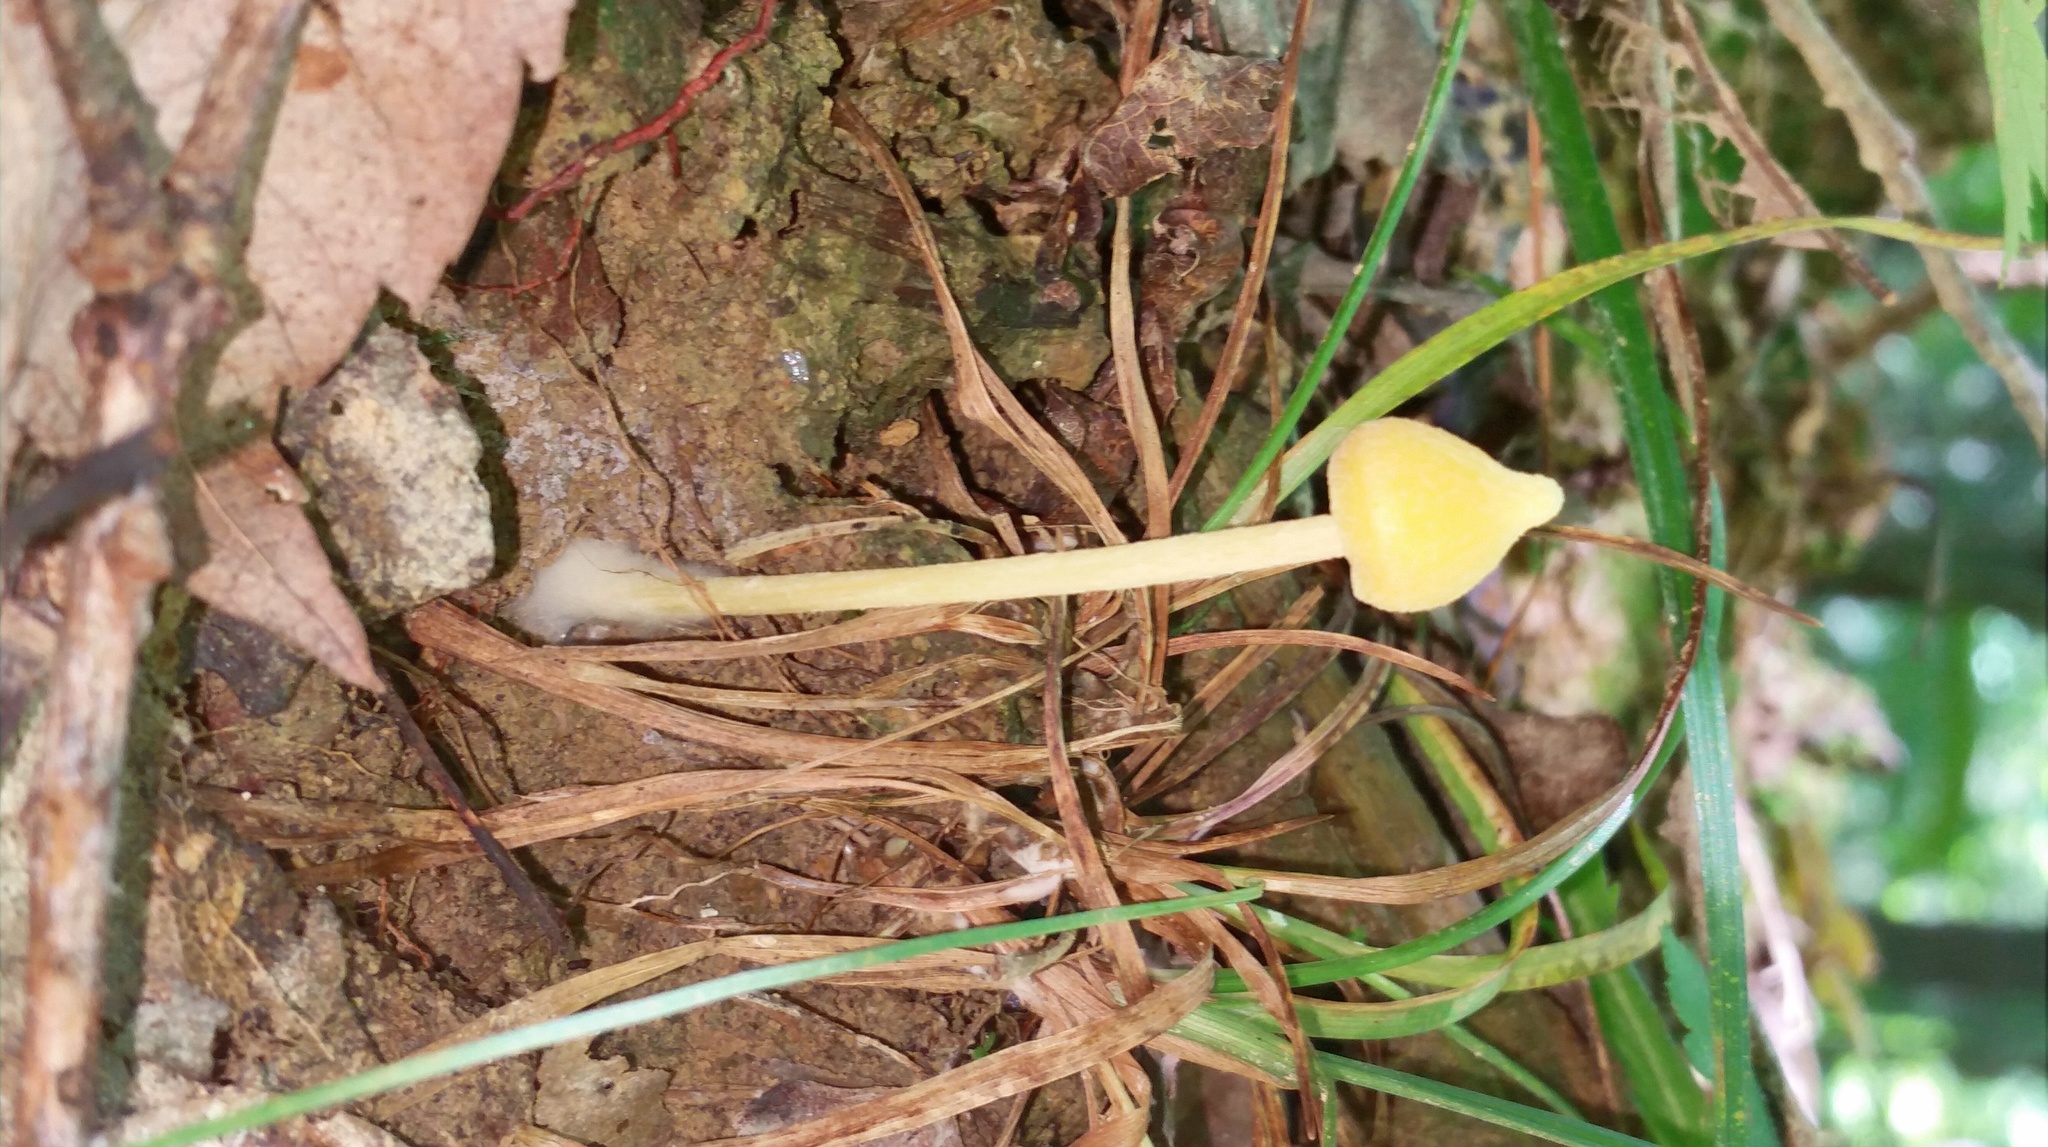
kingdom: Fungi
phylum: Basidiomycota
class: Agaricomycetes
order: Agaricales
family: Entolomataceae
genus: Entoloma
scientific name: Entoloma murrayi
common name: Yellow unicorn entoloma
